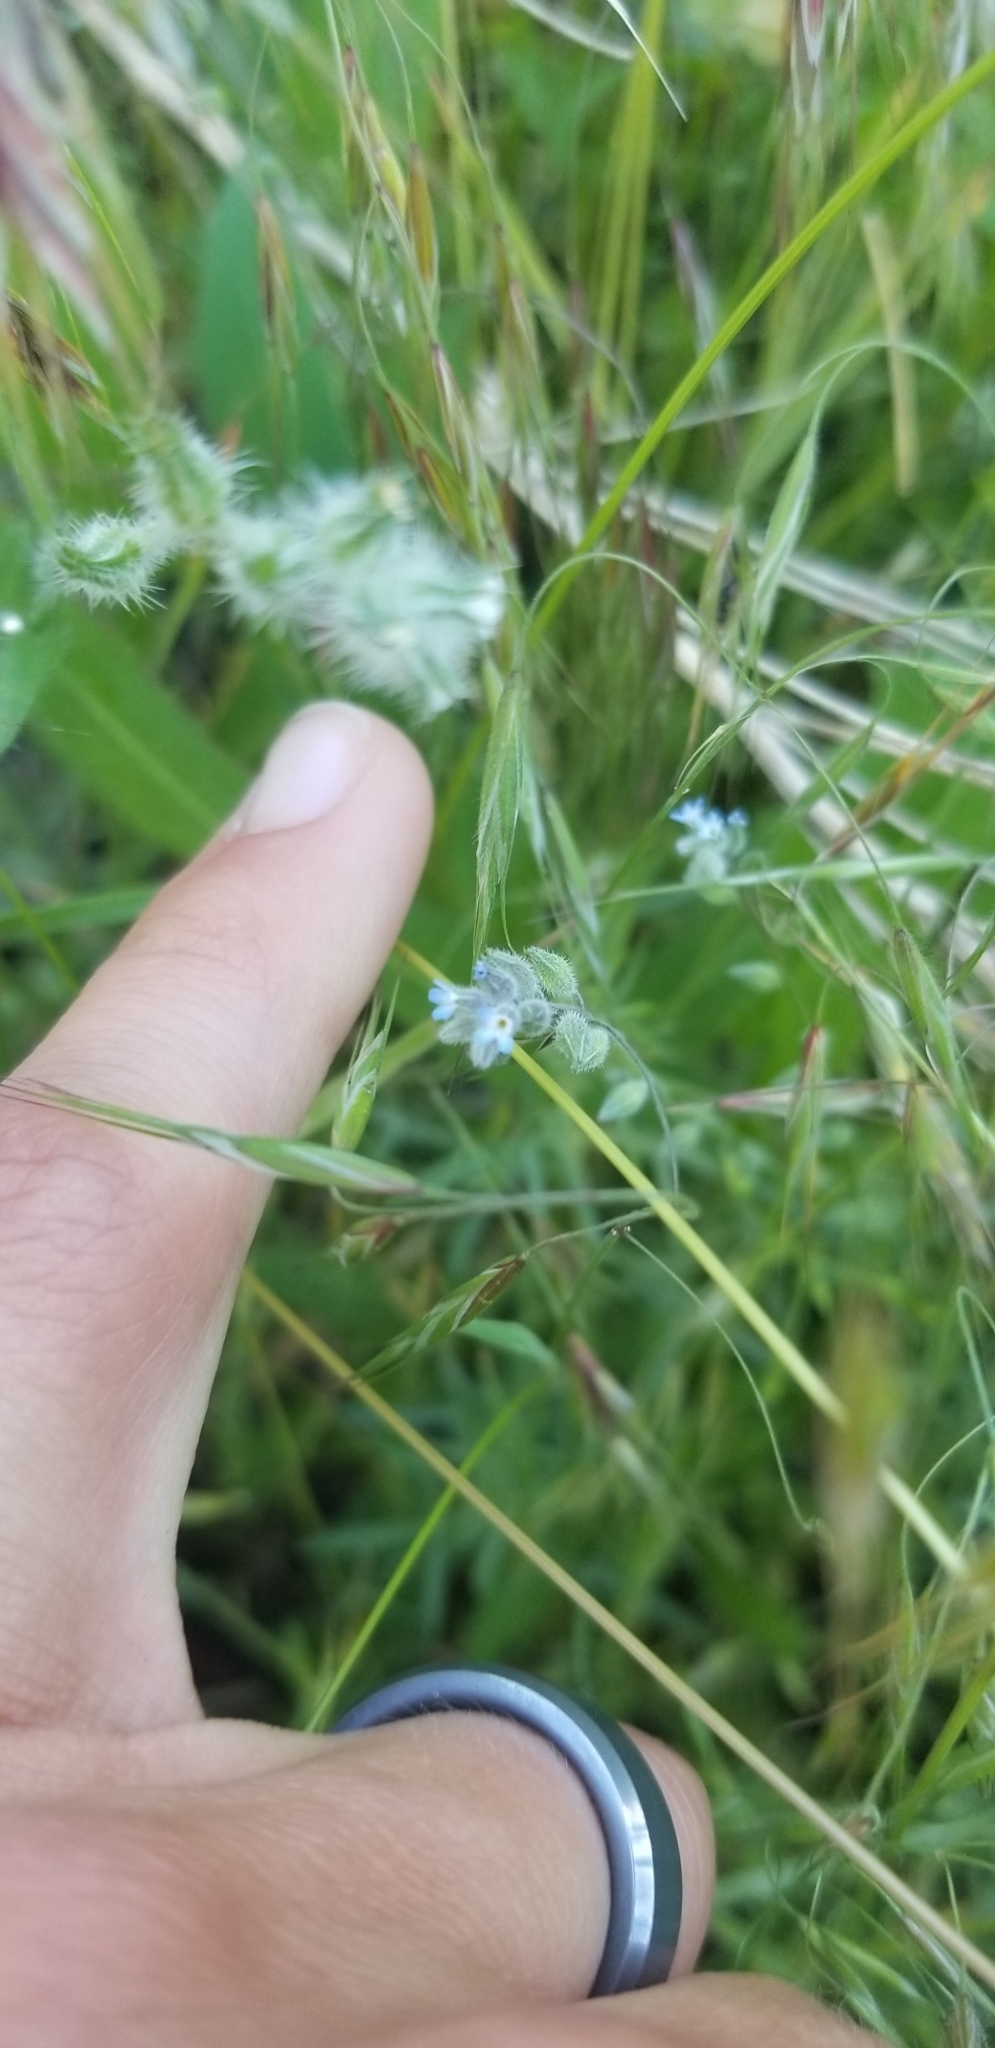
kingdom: Plantae
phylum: Tracheophyta
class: Magnoliopsida
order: Boraginales
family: Boraginaceae
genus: Myosotis
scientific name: Myosotis stricta
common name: Strict forget-me-not
